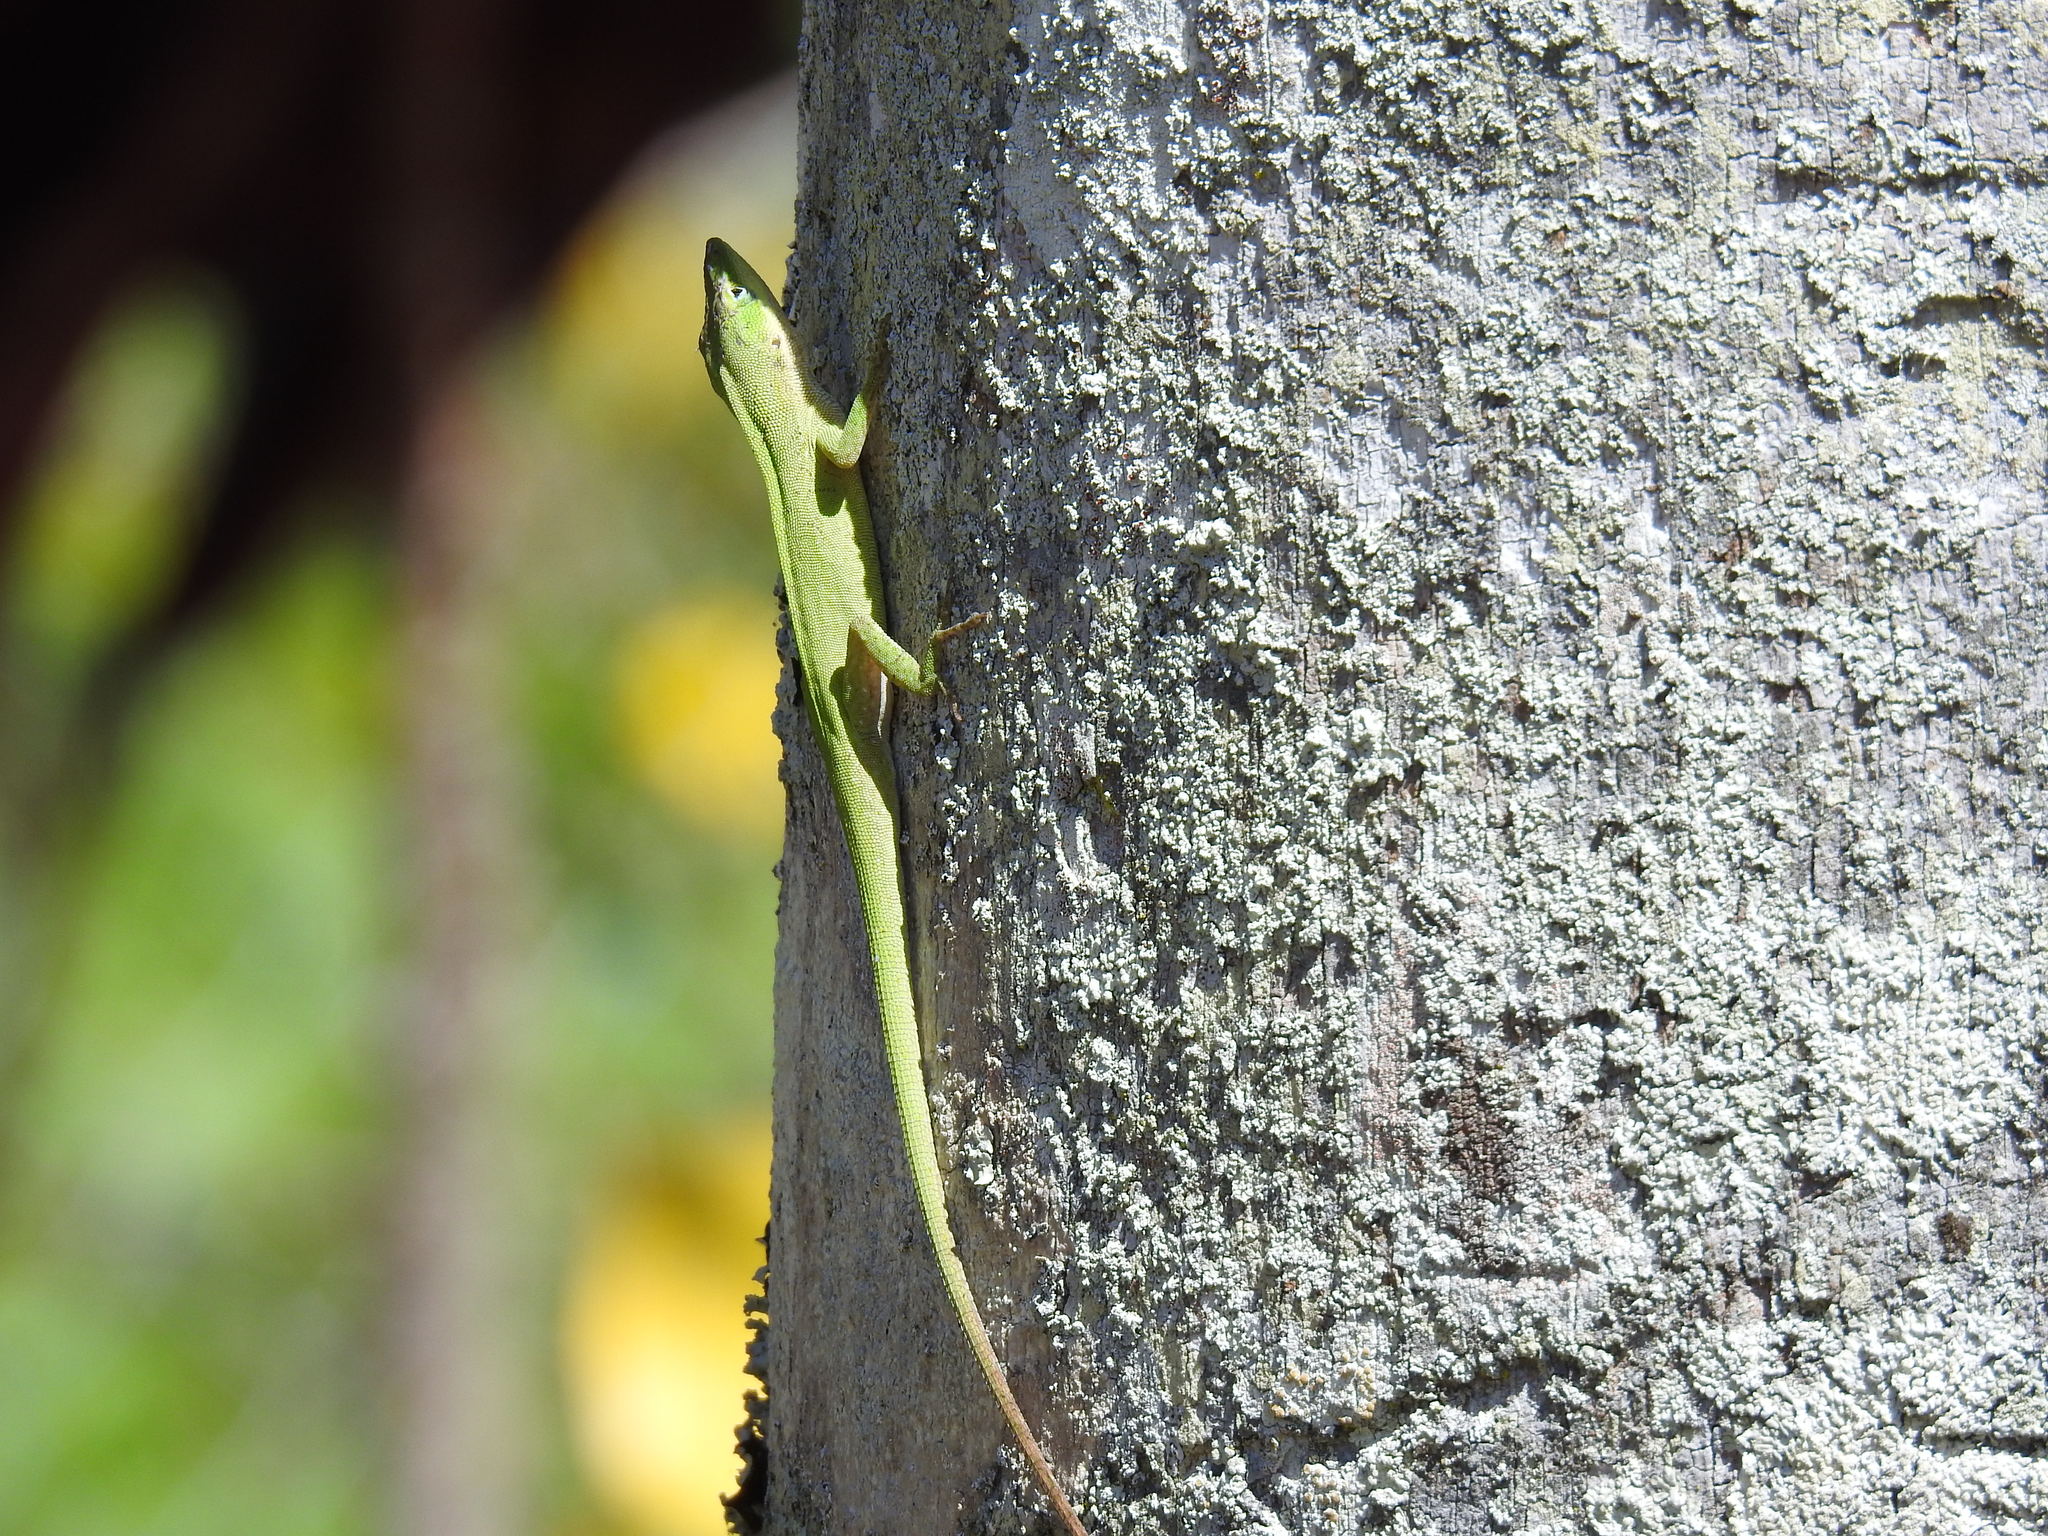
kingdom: Animalia
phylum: Chordata
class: Squamata
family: Dactyloidae
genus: Anolis
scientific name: Anolis carolinensis
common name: Green anole
